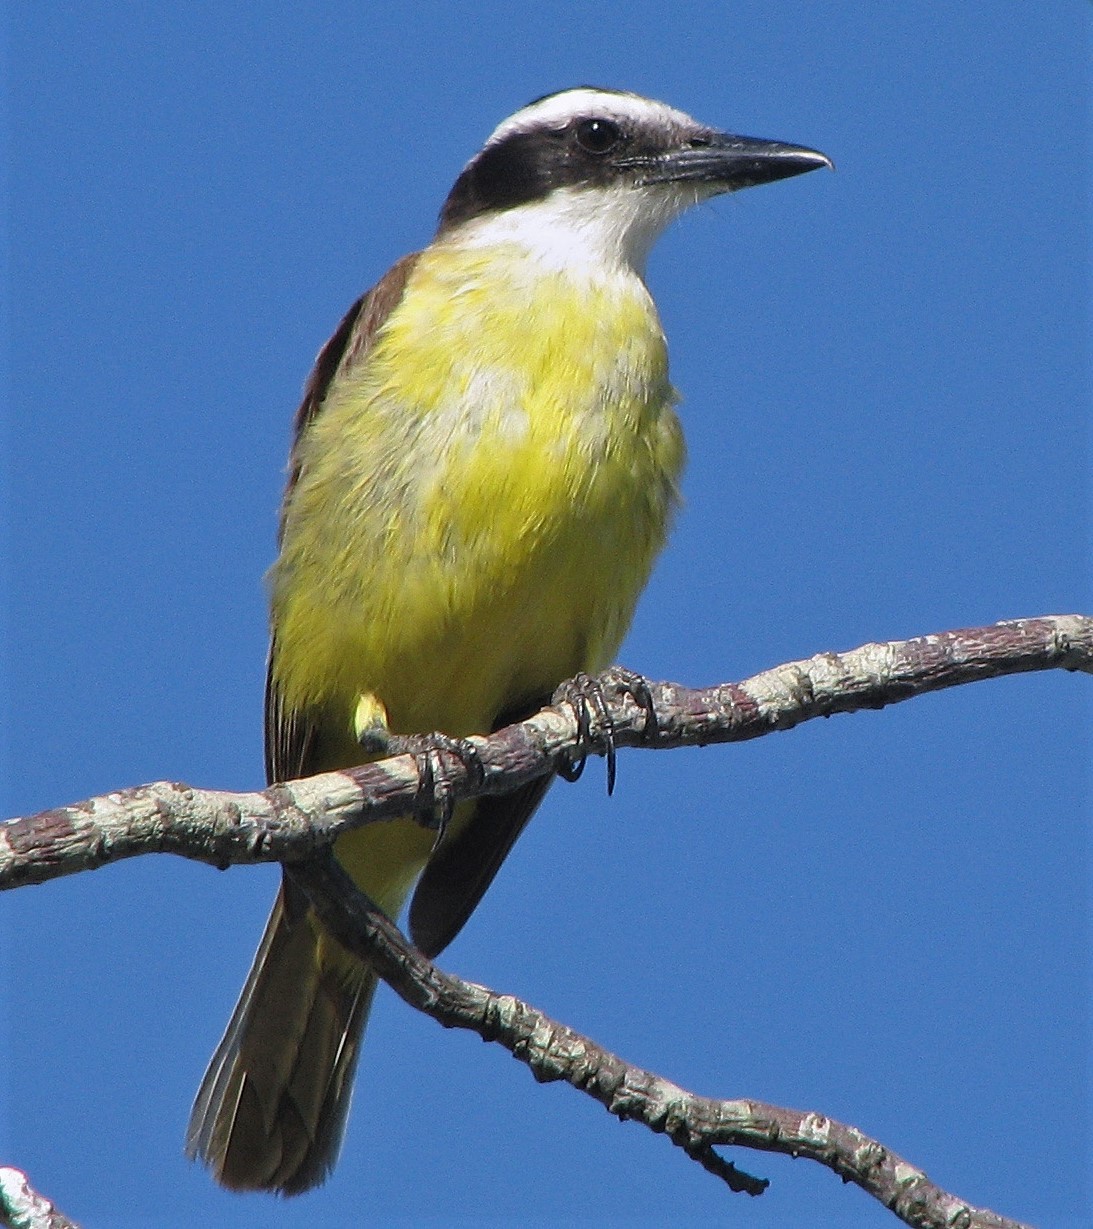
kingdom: Animalia
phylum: Chordata
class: Aves
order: Passeriformes
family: Tyrannidae
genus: Pitangus
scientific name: Pitangus sulphuratus
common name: Great kiskadee
